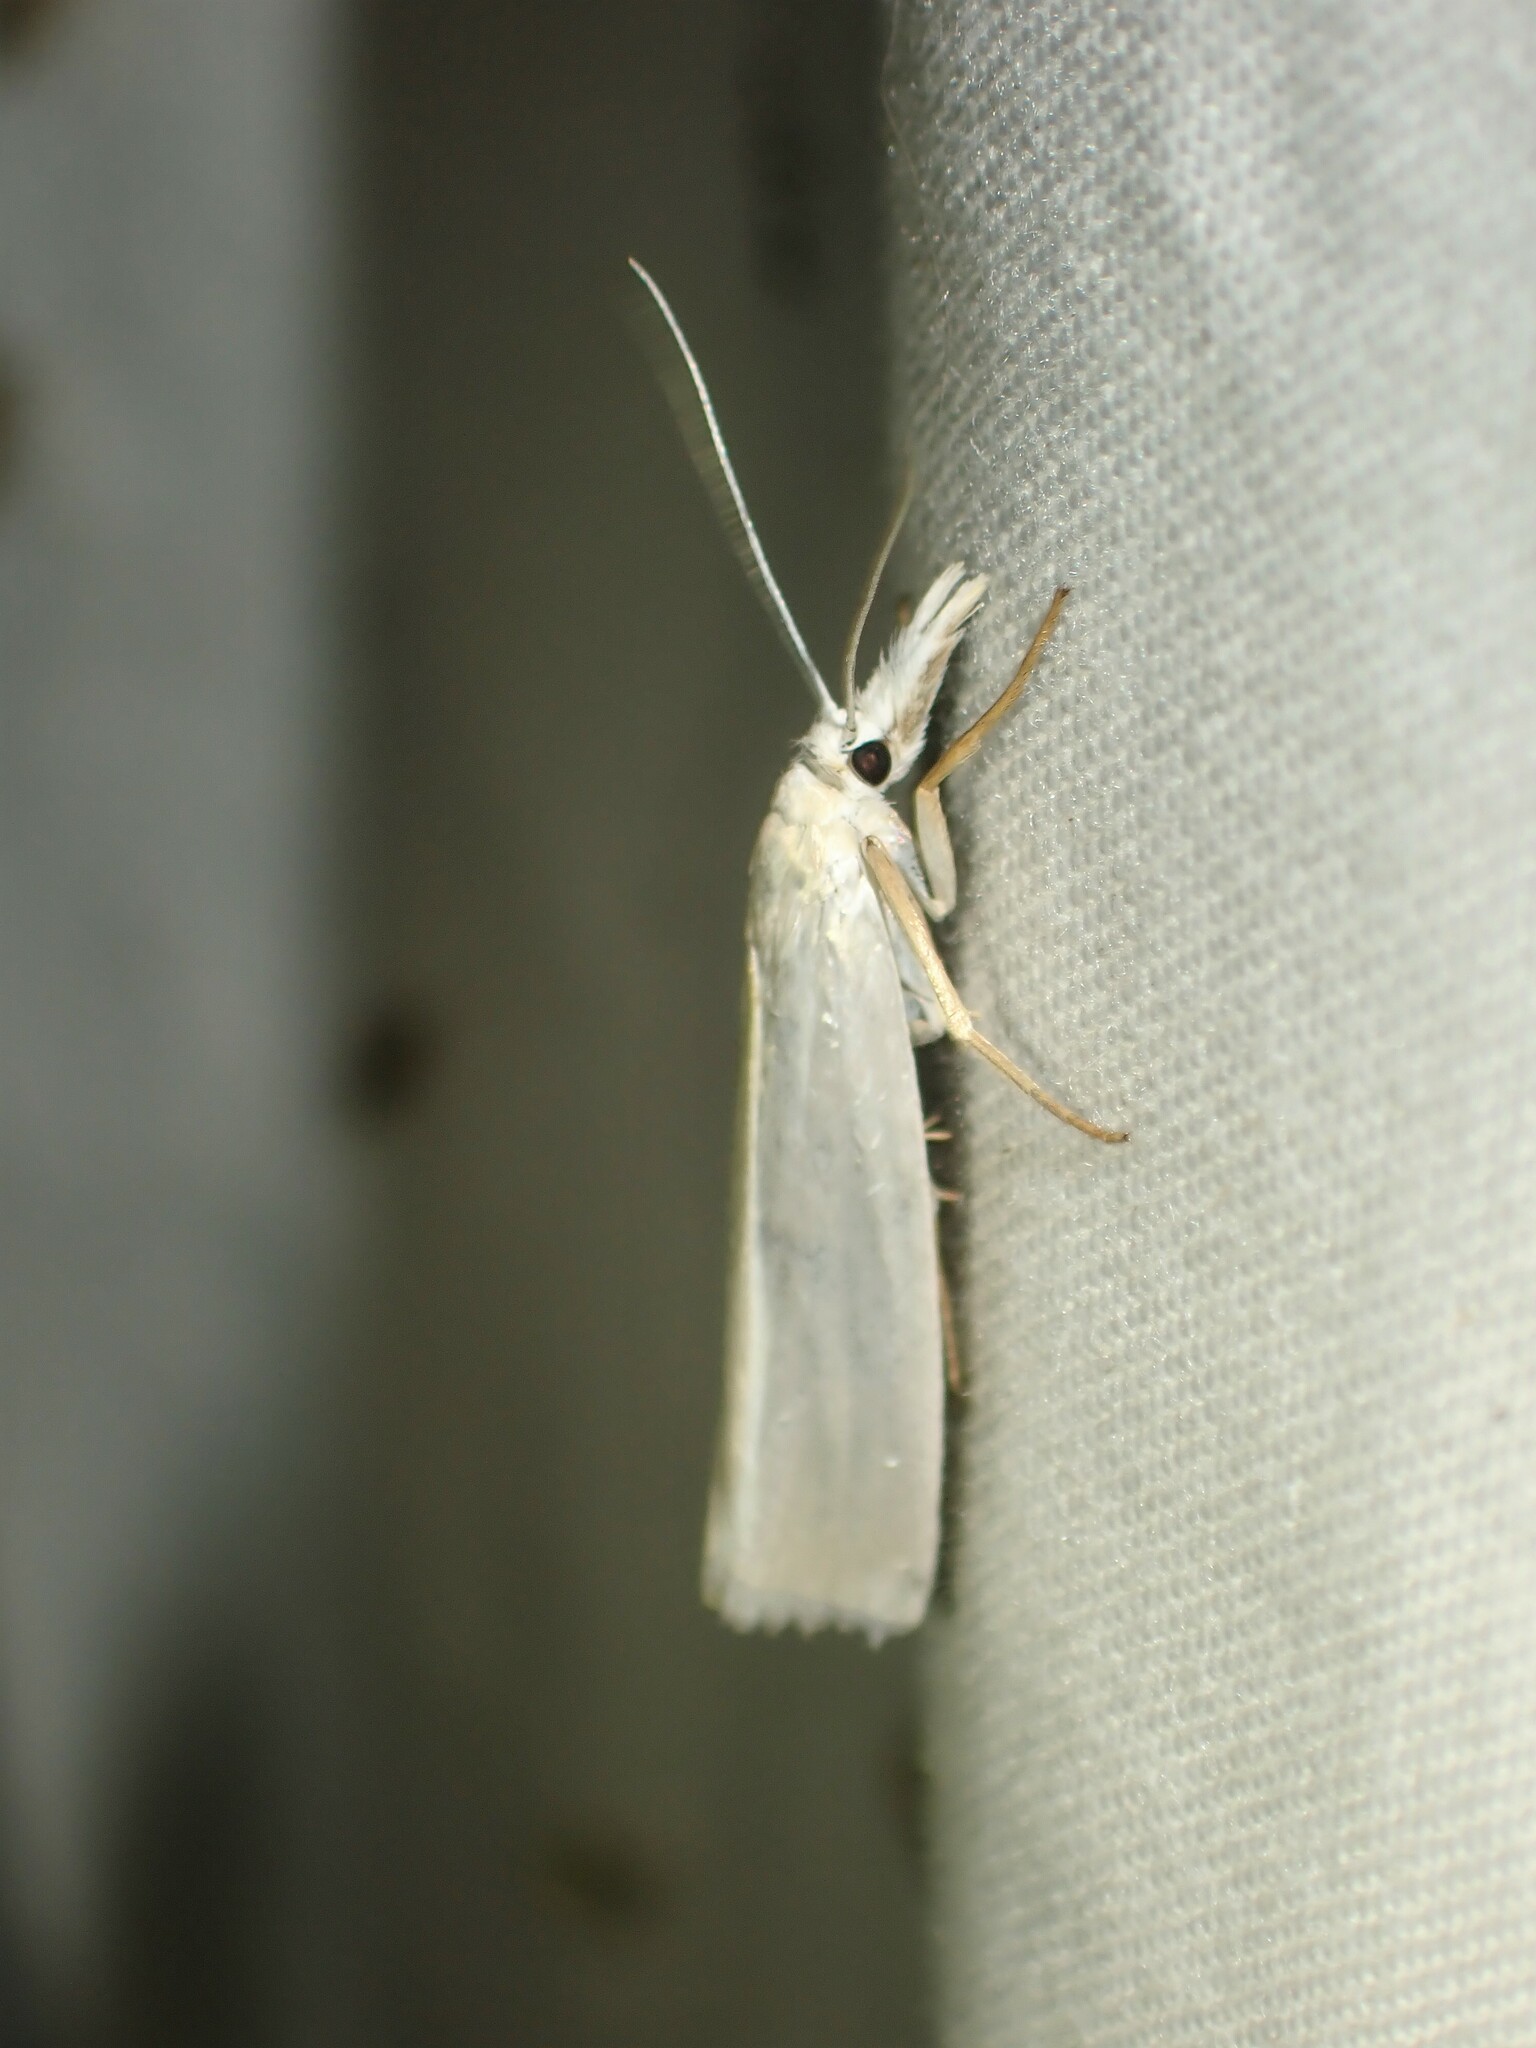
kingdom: Animalia
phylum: Arthropoda
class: Insecta
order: Lepidoptera
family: Crambidae
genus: Crambus
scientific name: Crambus perlellus
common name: Yellow satin veneer
